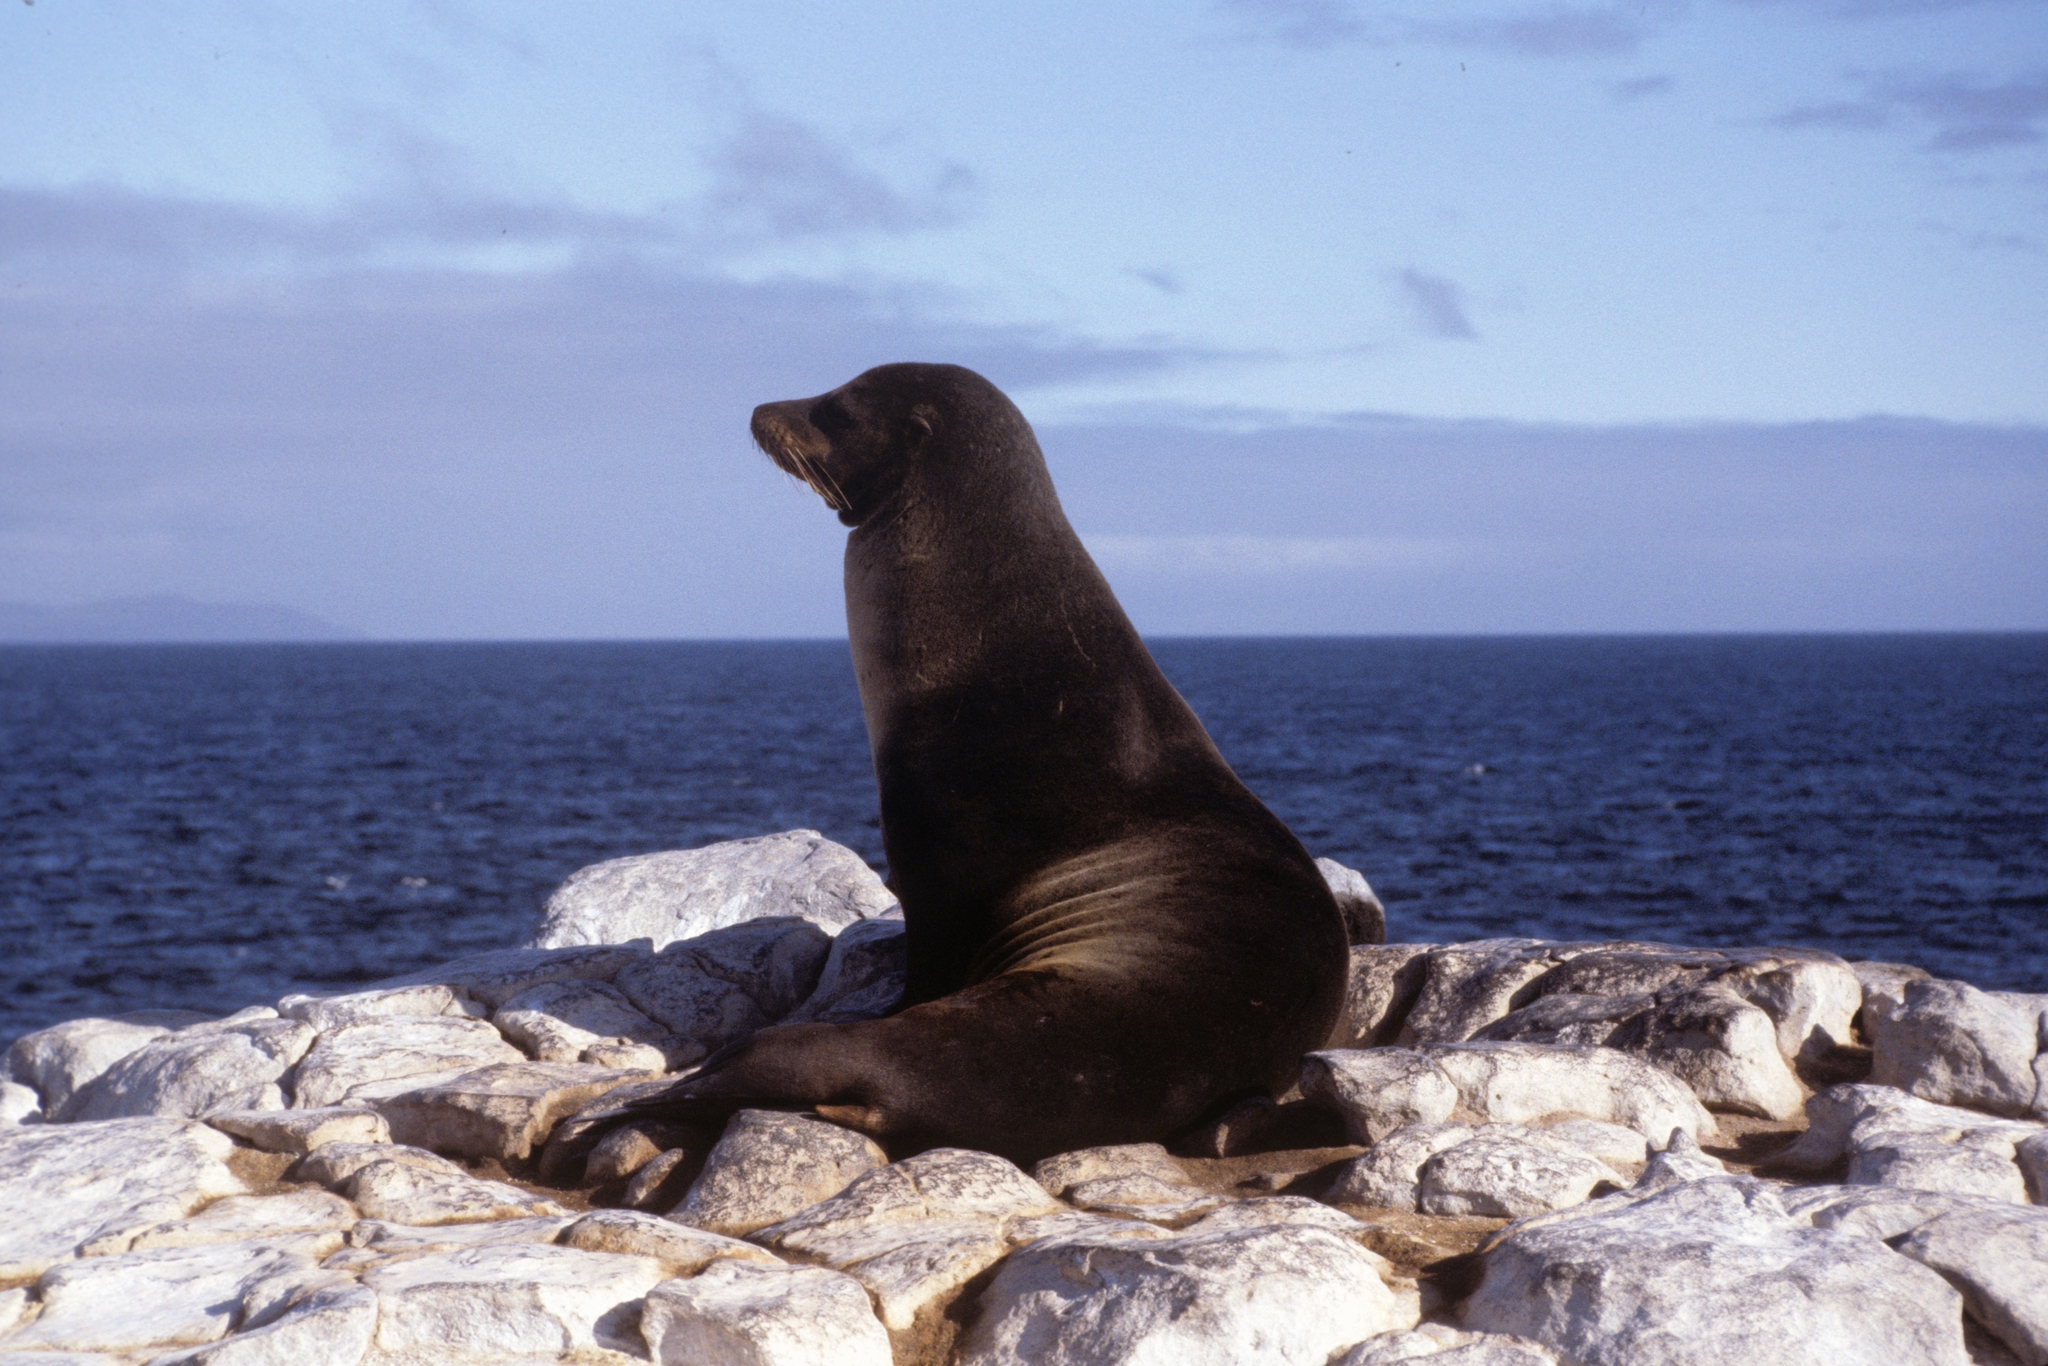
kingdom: Animalia
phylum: Chordata
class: Mammalia
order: Carnivora
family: Otariidae
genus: Zalophus
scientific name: Zalophus wollebaeki
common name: Galapagos sea lion
